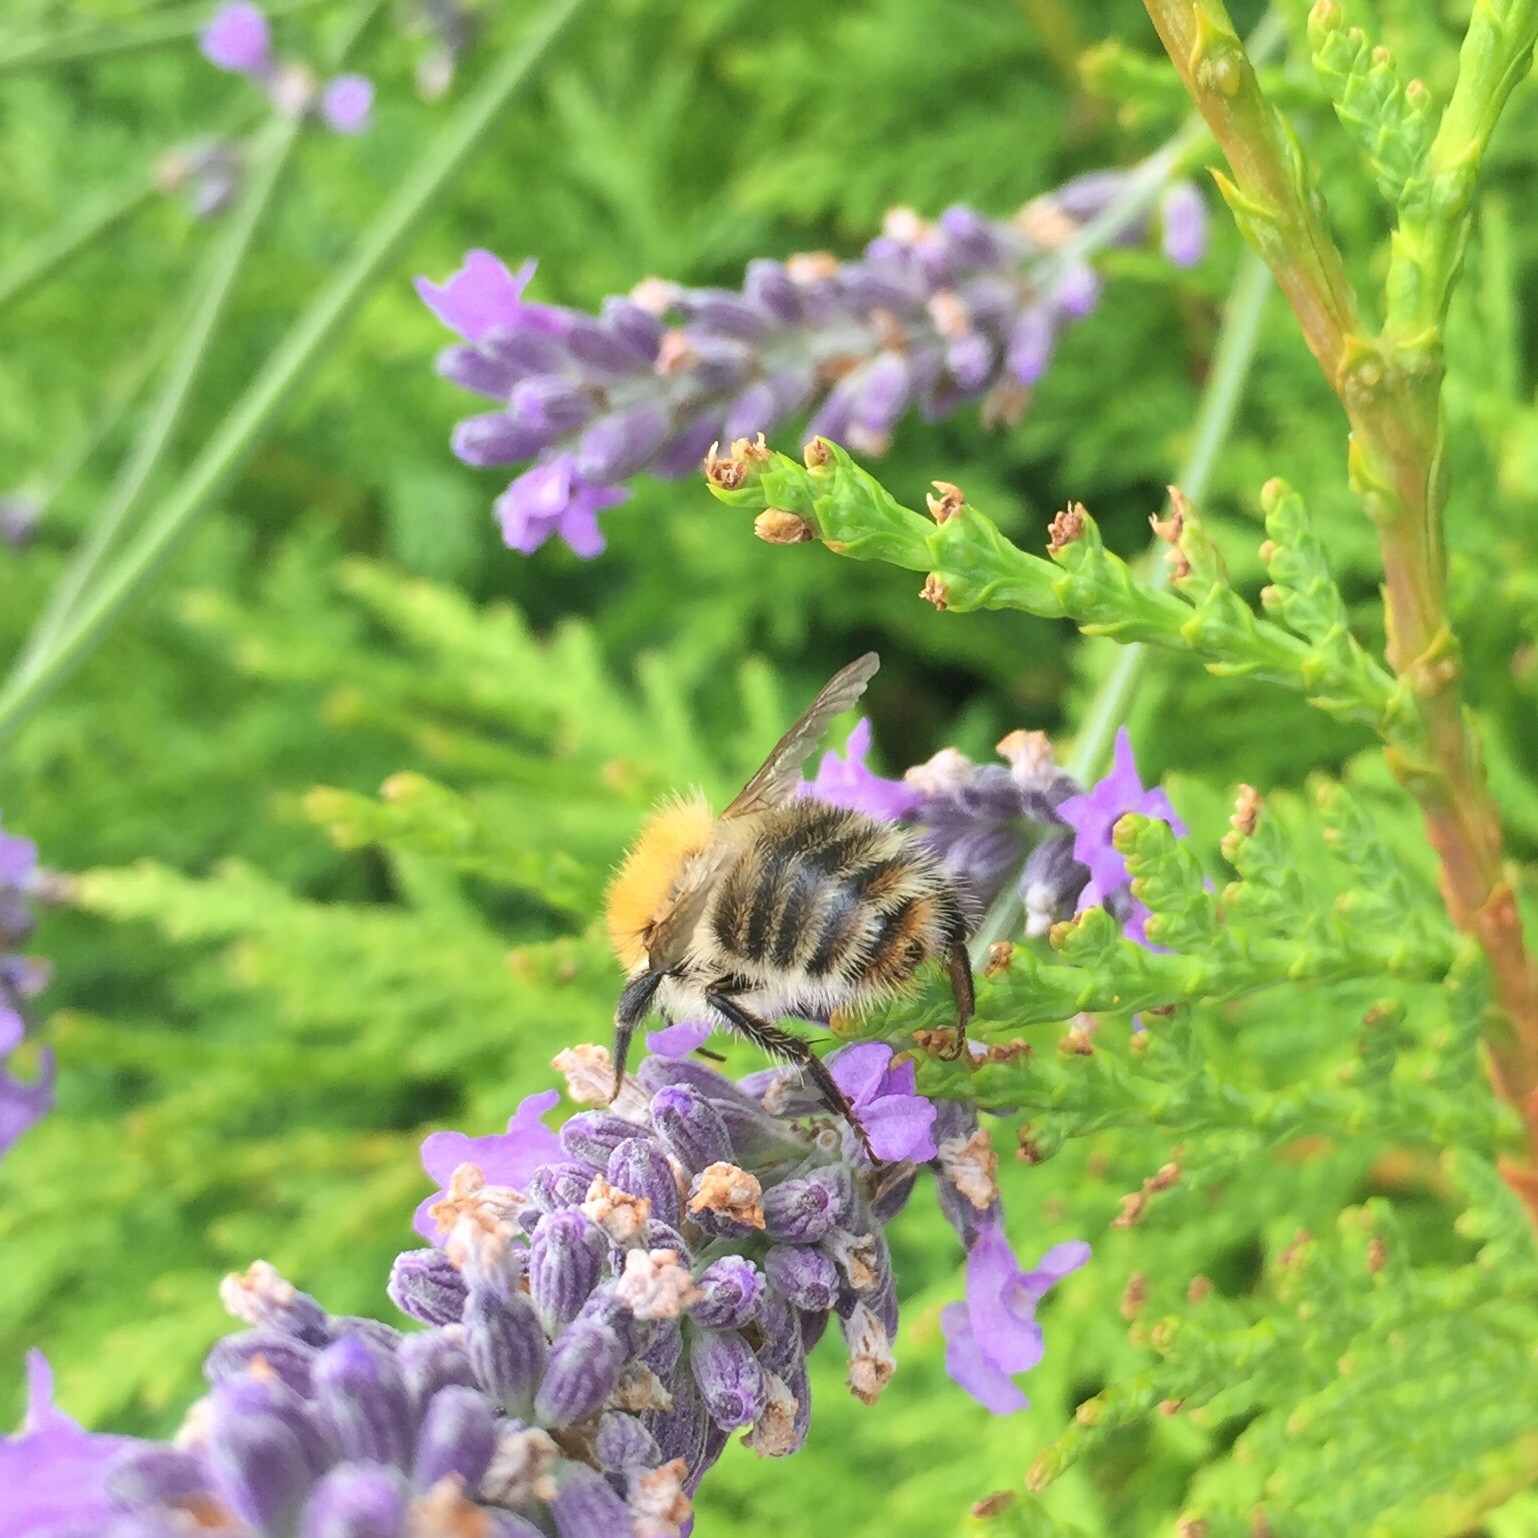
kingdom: Animalia
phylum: Arthropoda
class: Insecta
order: Hymenoptera
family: Apidae
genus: Bombus
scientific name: Bombus pascuorum
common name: Common carder bee
